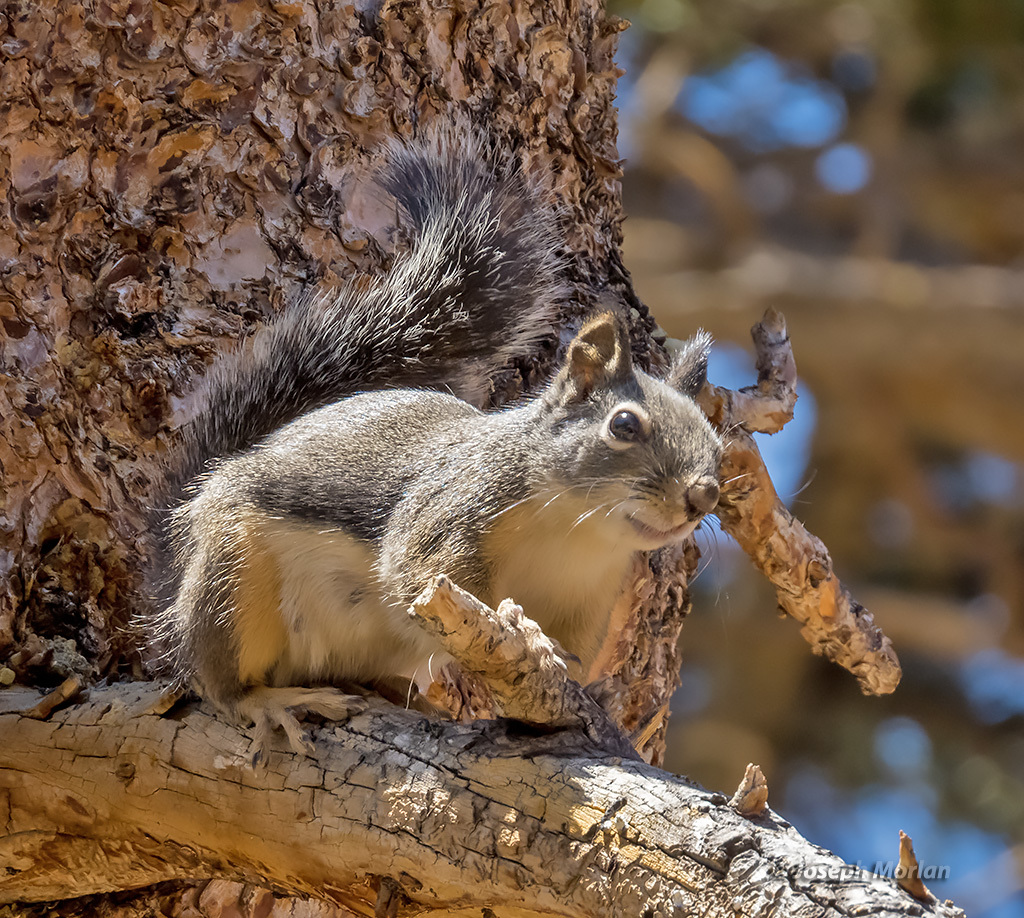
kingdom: Animalia
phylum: Chordata
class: Mammalia
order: Rodentia
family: Sciuridae
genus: Tamiasciurus
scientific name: Tamiasciurus douglasii
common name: Douglas's squirrel
